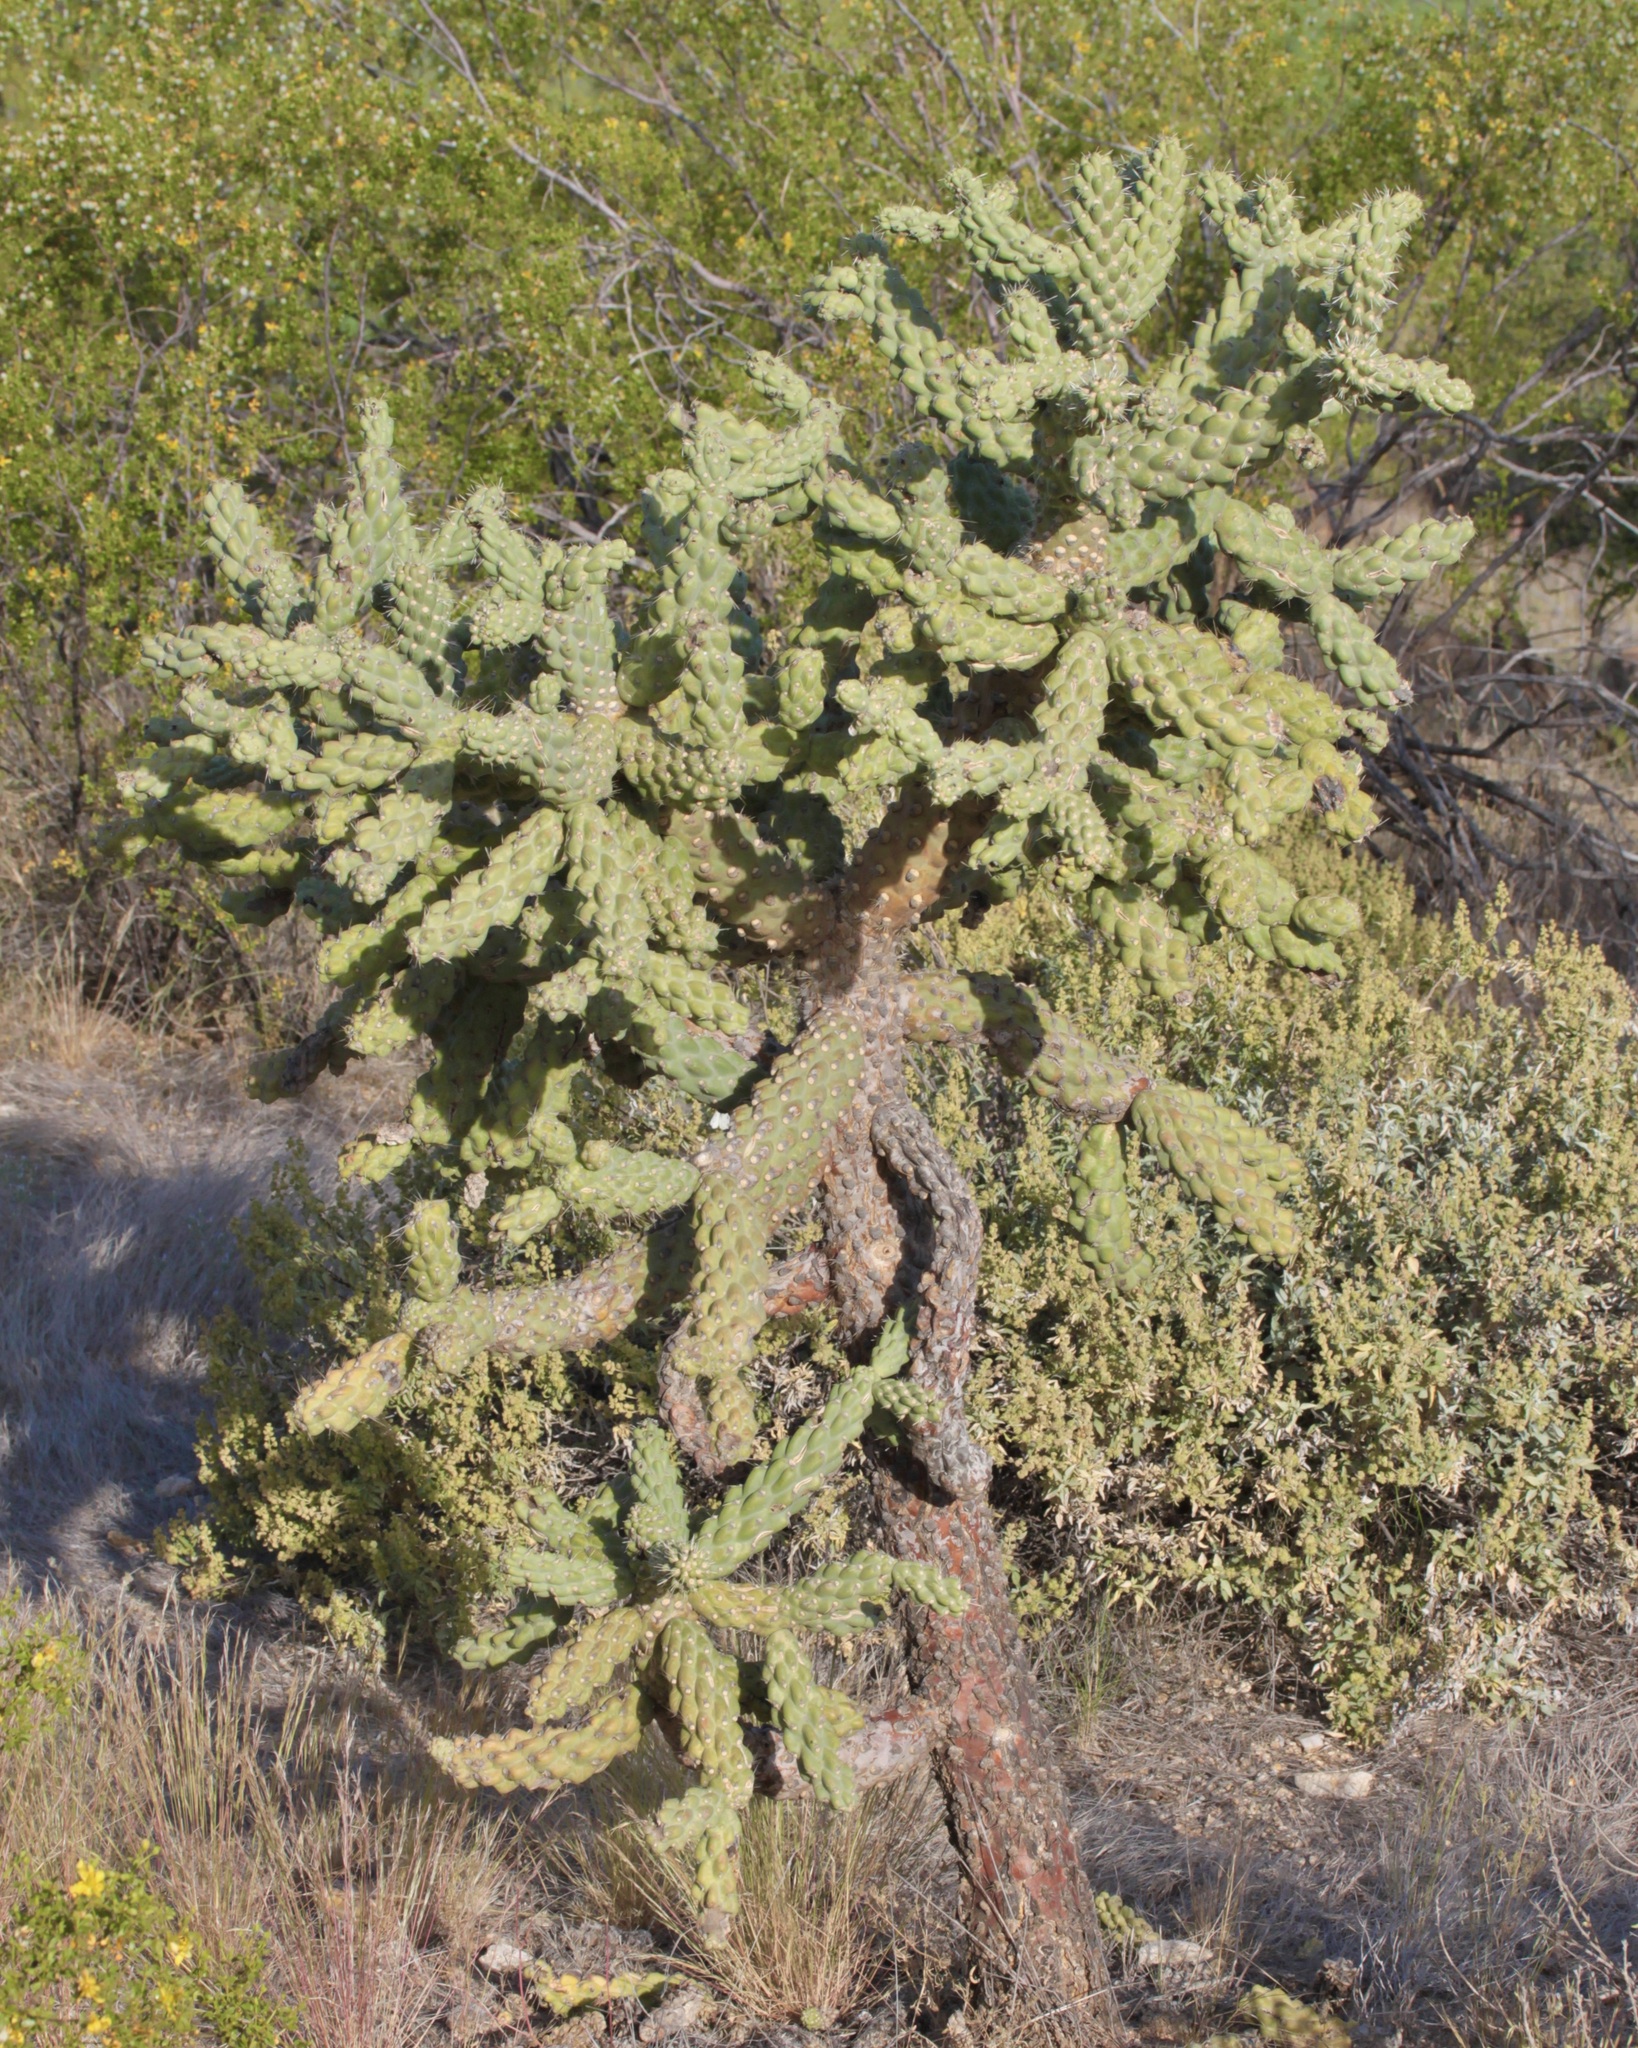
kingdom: Plantae
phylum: Tracheophyta
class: Magnoliopsida
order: Caryophyllales
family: Cactaceae
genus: Cylindropuntia
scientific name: Cylindropuntia fulgida
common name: Jumping cholla
